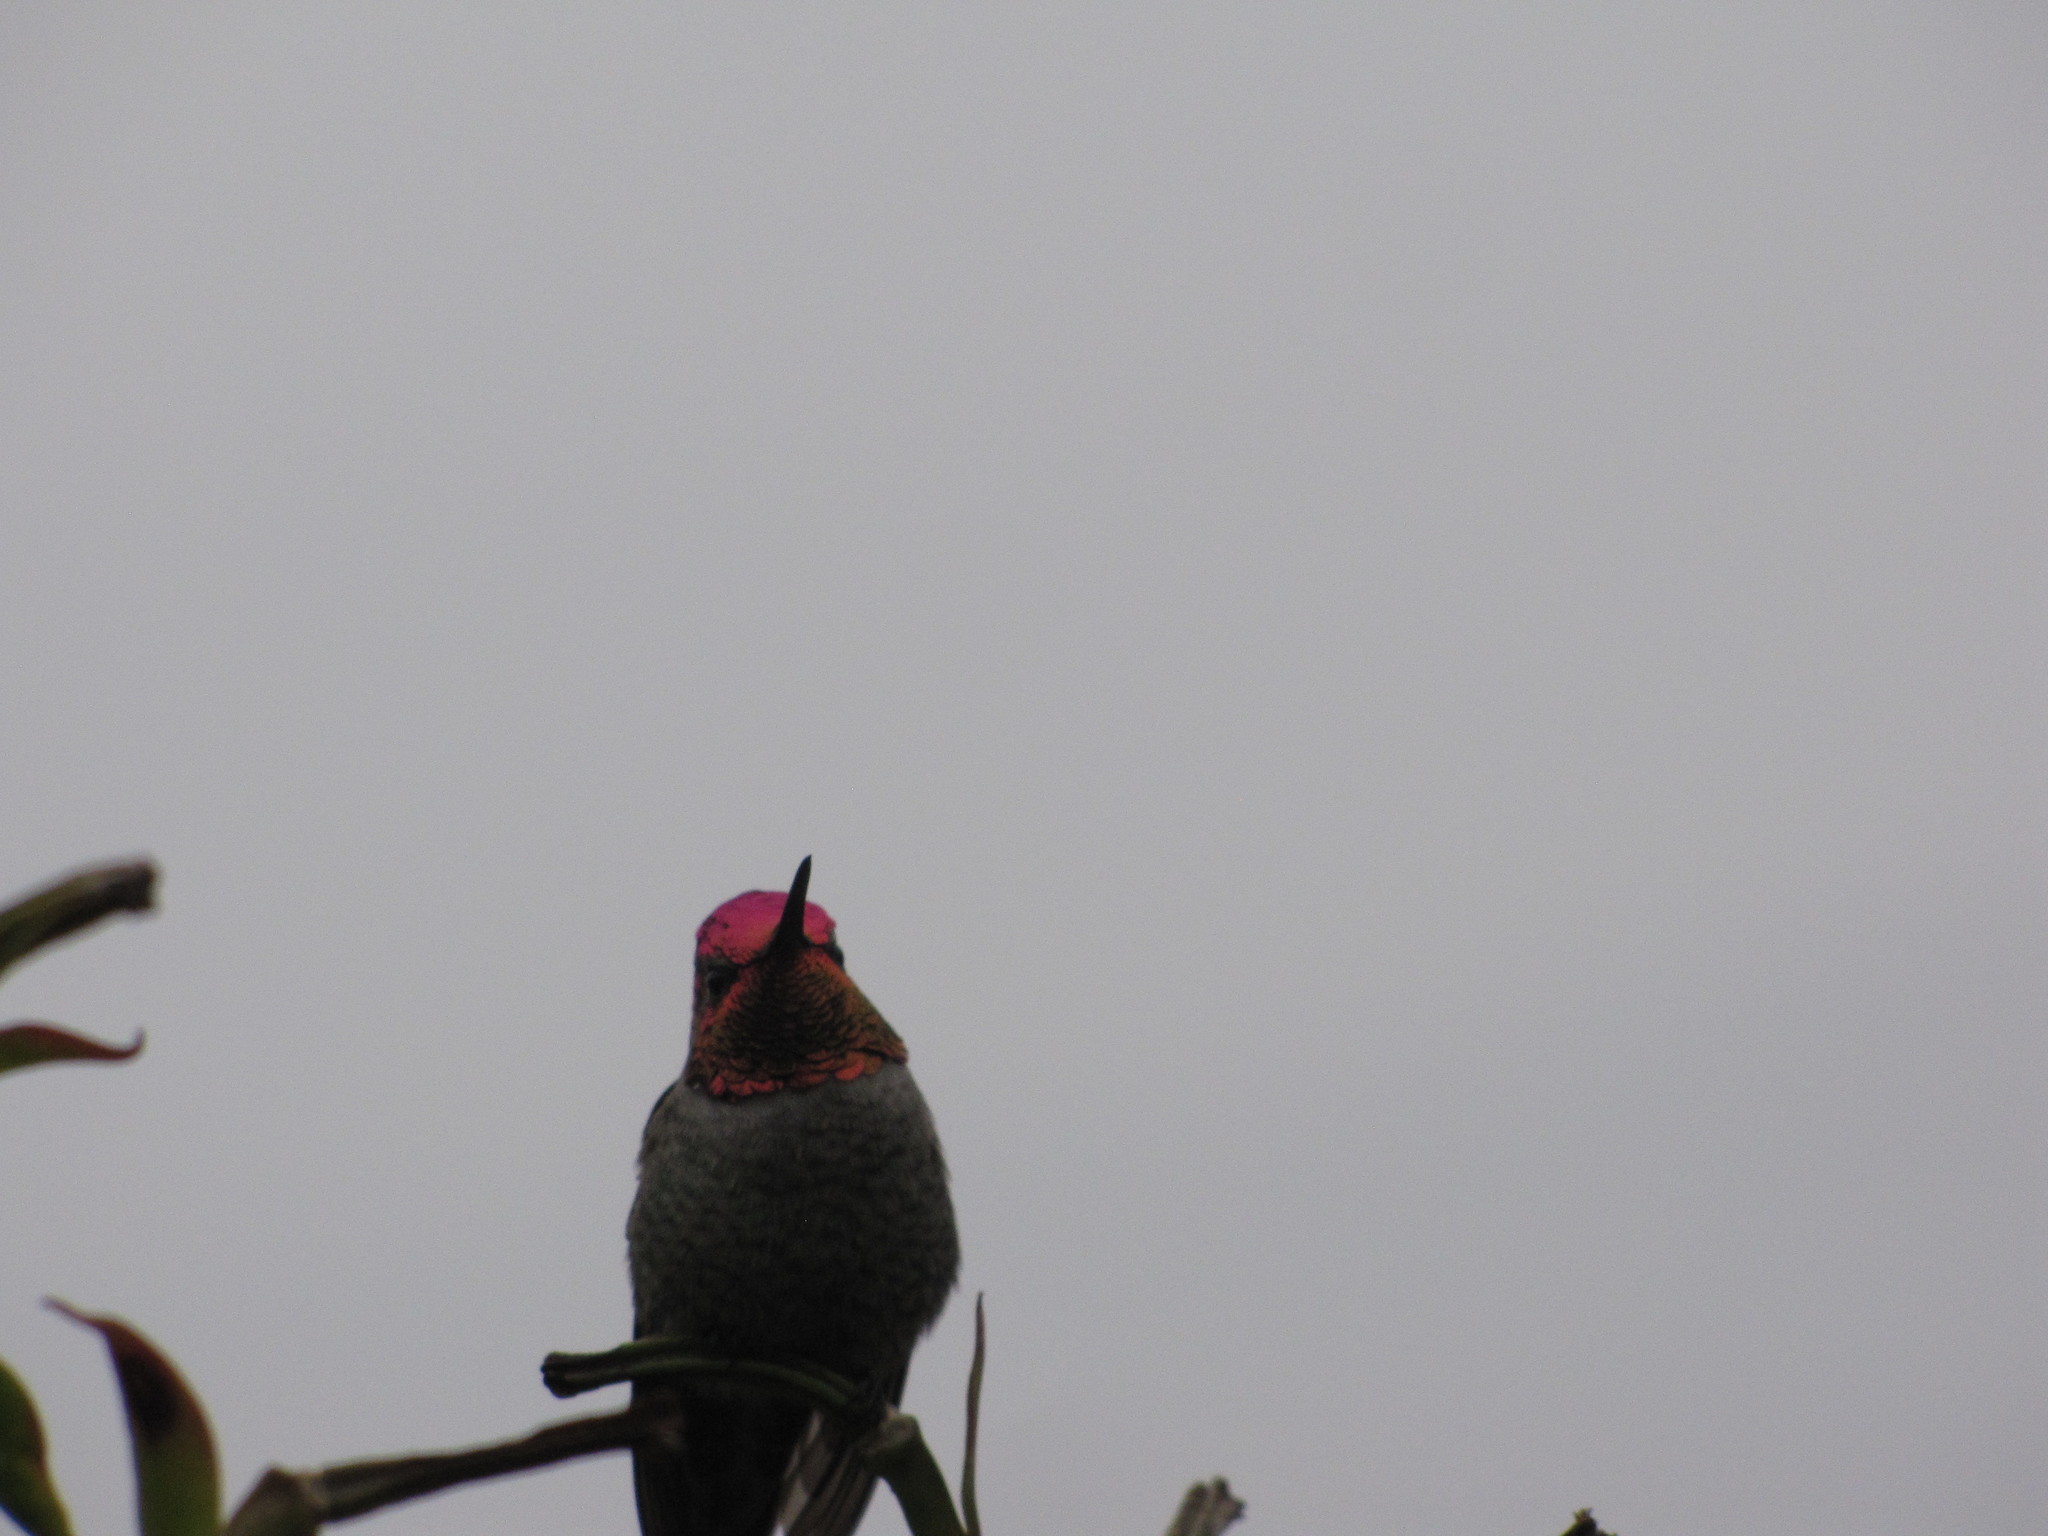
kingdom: Animalia
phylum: Chordata
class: Aves
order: Apodiformes
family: Trochilidae
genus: Calypte
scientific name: Calypte anna
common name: Anna's hummingbird
